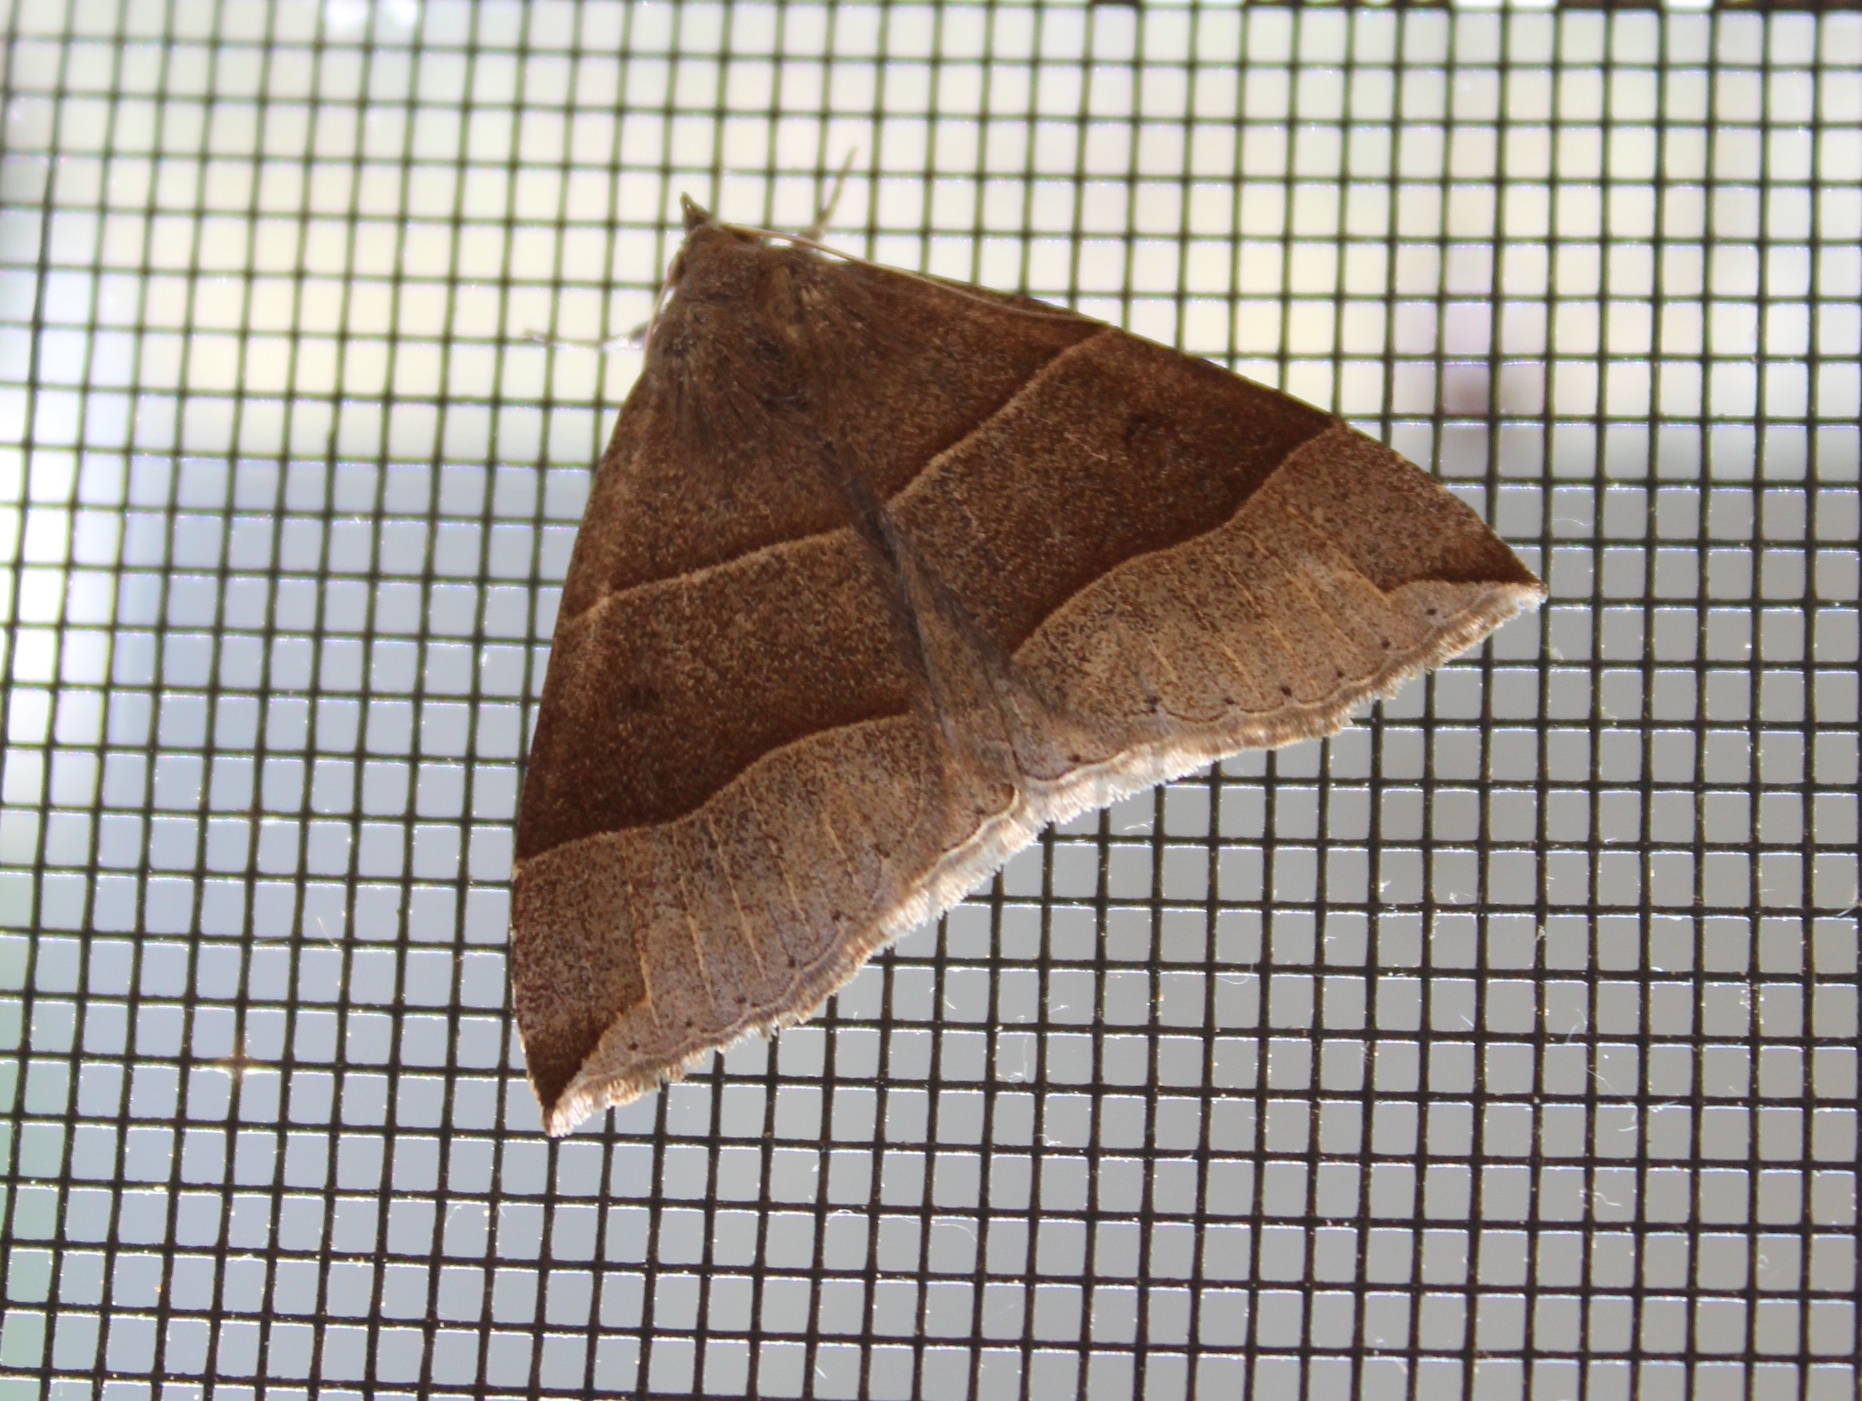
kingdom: Animalia
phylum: Arthropoda
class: Insecta
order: Lepidoptera
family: Erebidae
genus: Parallelia
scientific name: Parallelia bistriaris
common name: Maple looper moth
